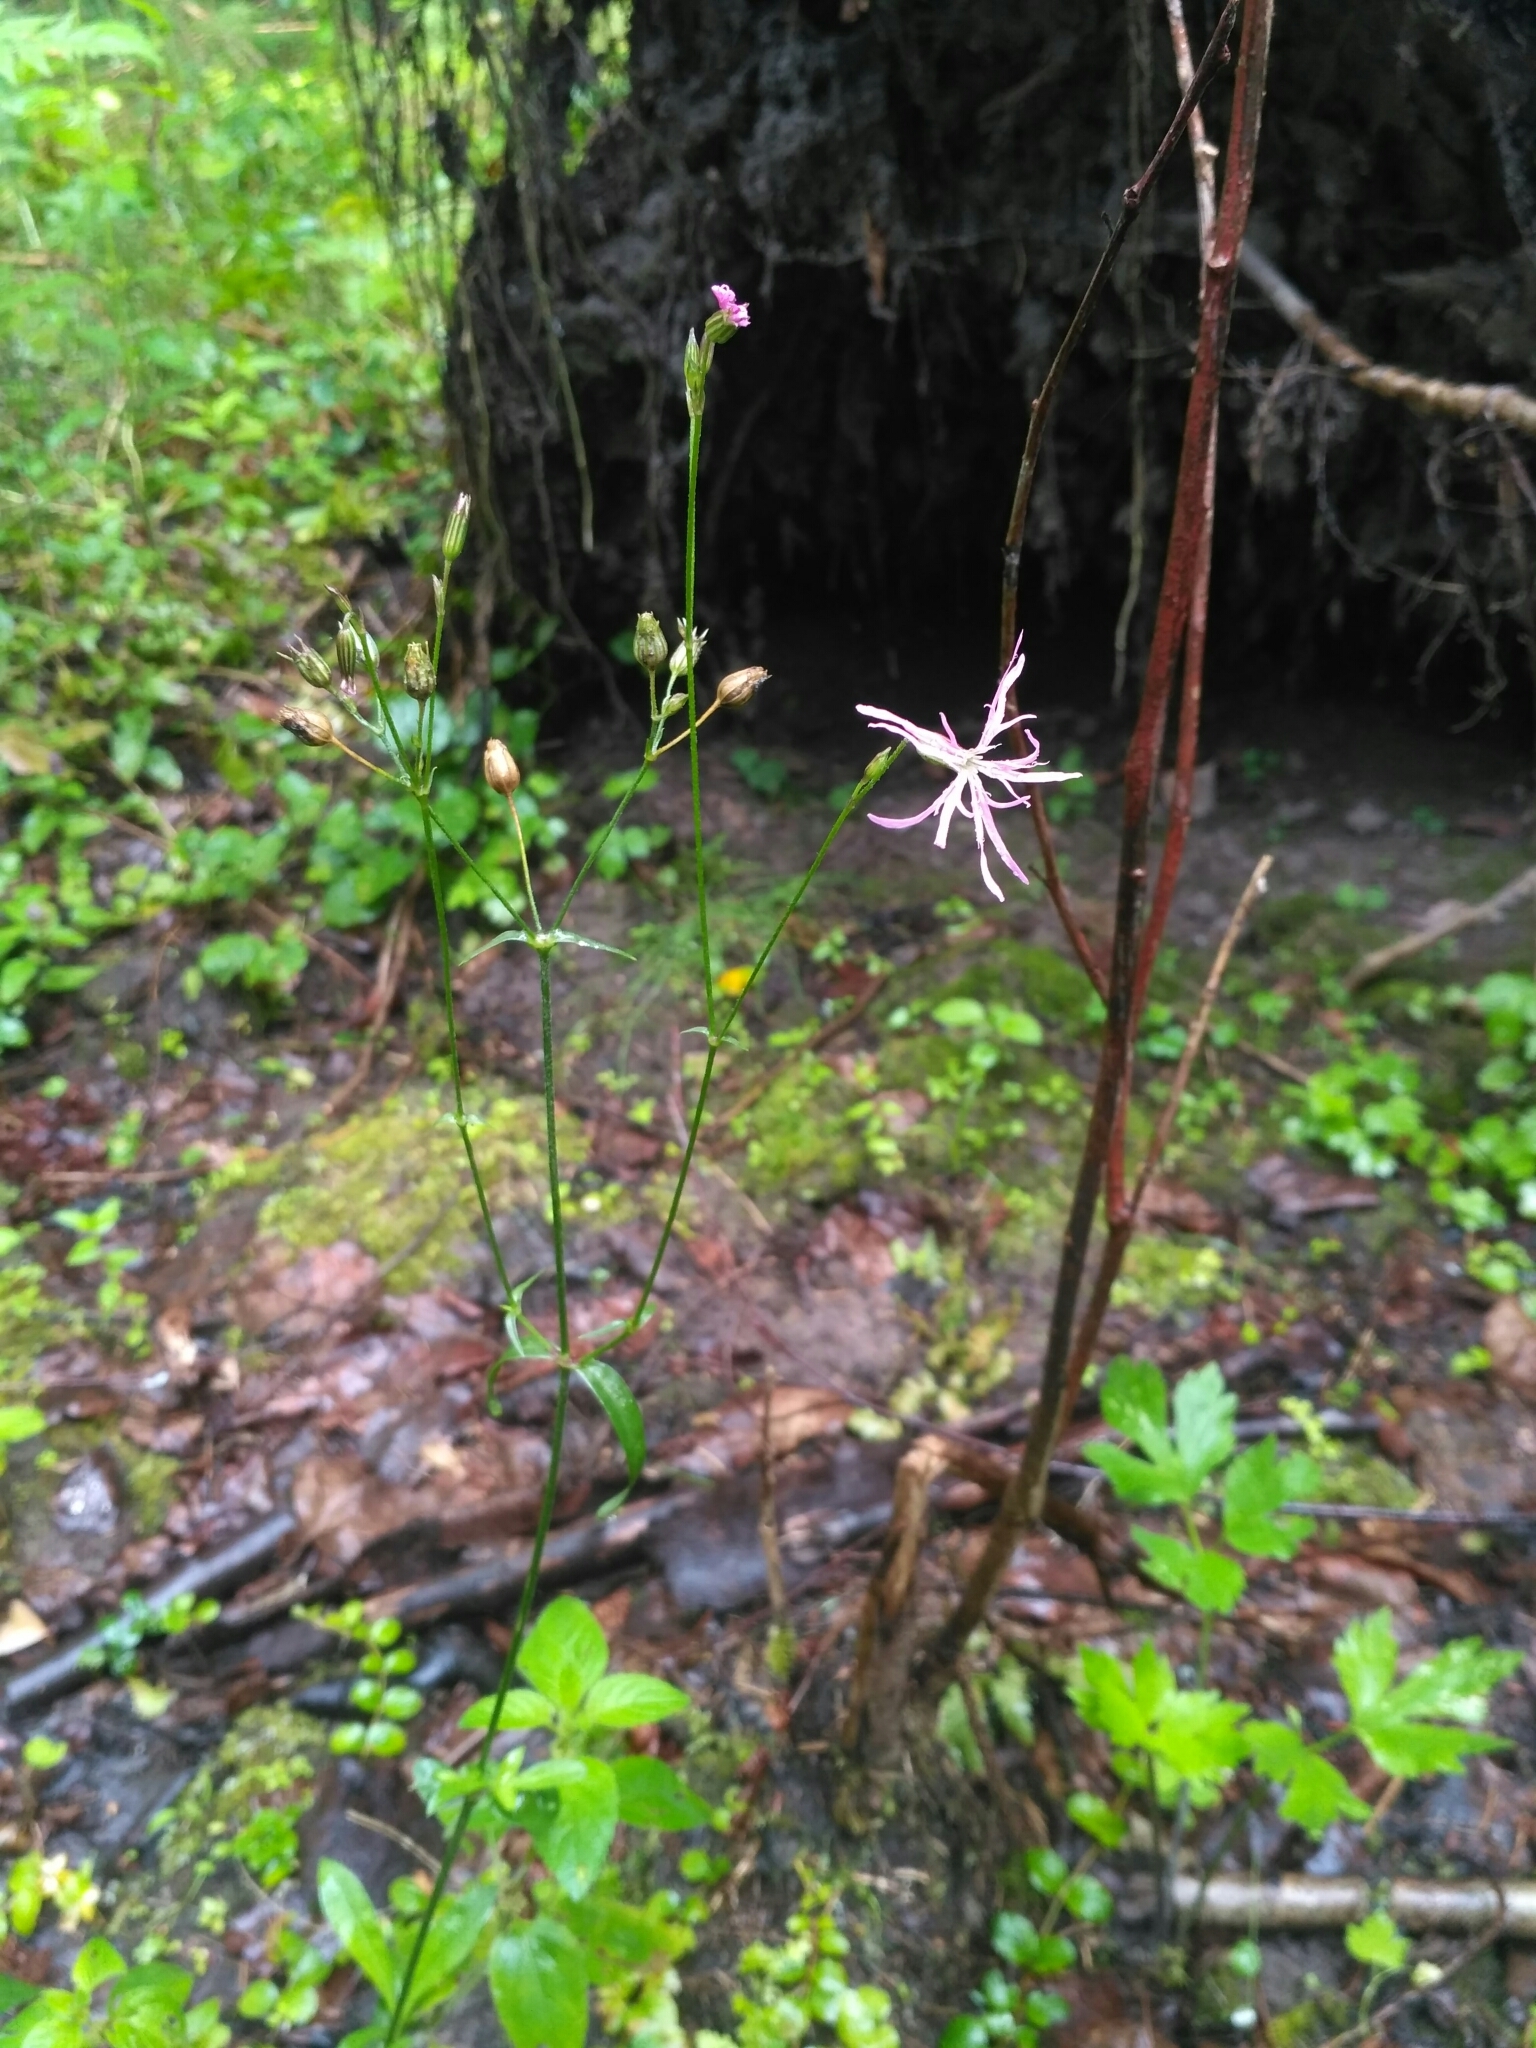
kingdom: Plantae
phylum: Tracheophyta
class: Magnoliopsida
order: Caryophyllales
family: Caryophyllaceae
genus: Silene
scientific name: Silene flos-cuculi
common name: Ragged-robin
